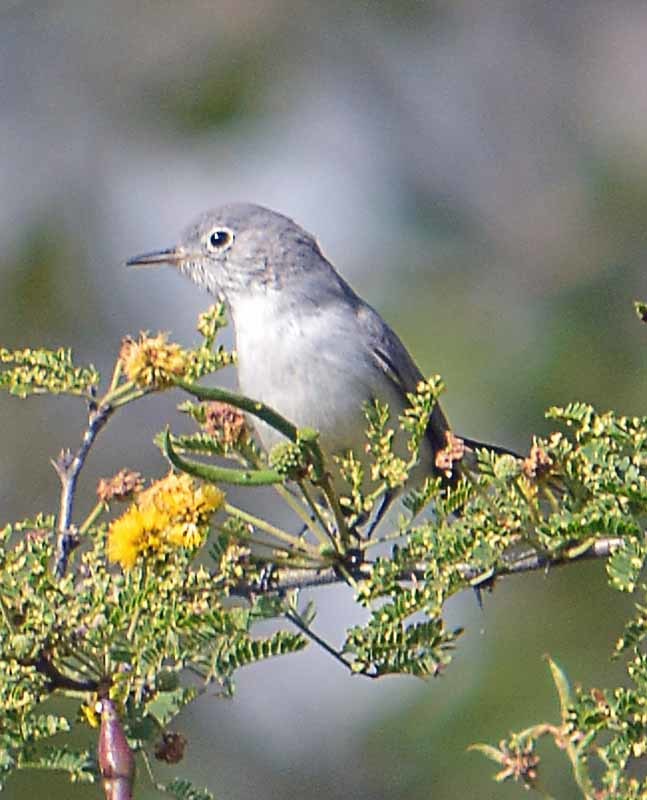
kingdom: Animalia
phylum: Chordata
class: Aves
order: Passeriformes
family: Polioptilidae
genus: Polioptila
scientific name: Polioptila caerulea
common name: Blue-gray gnatcatcher
